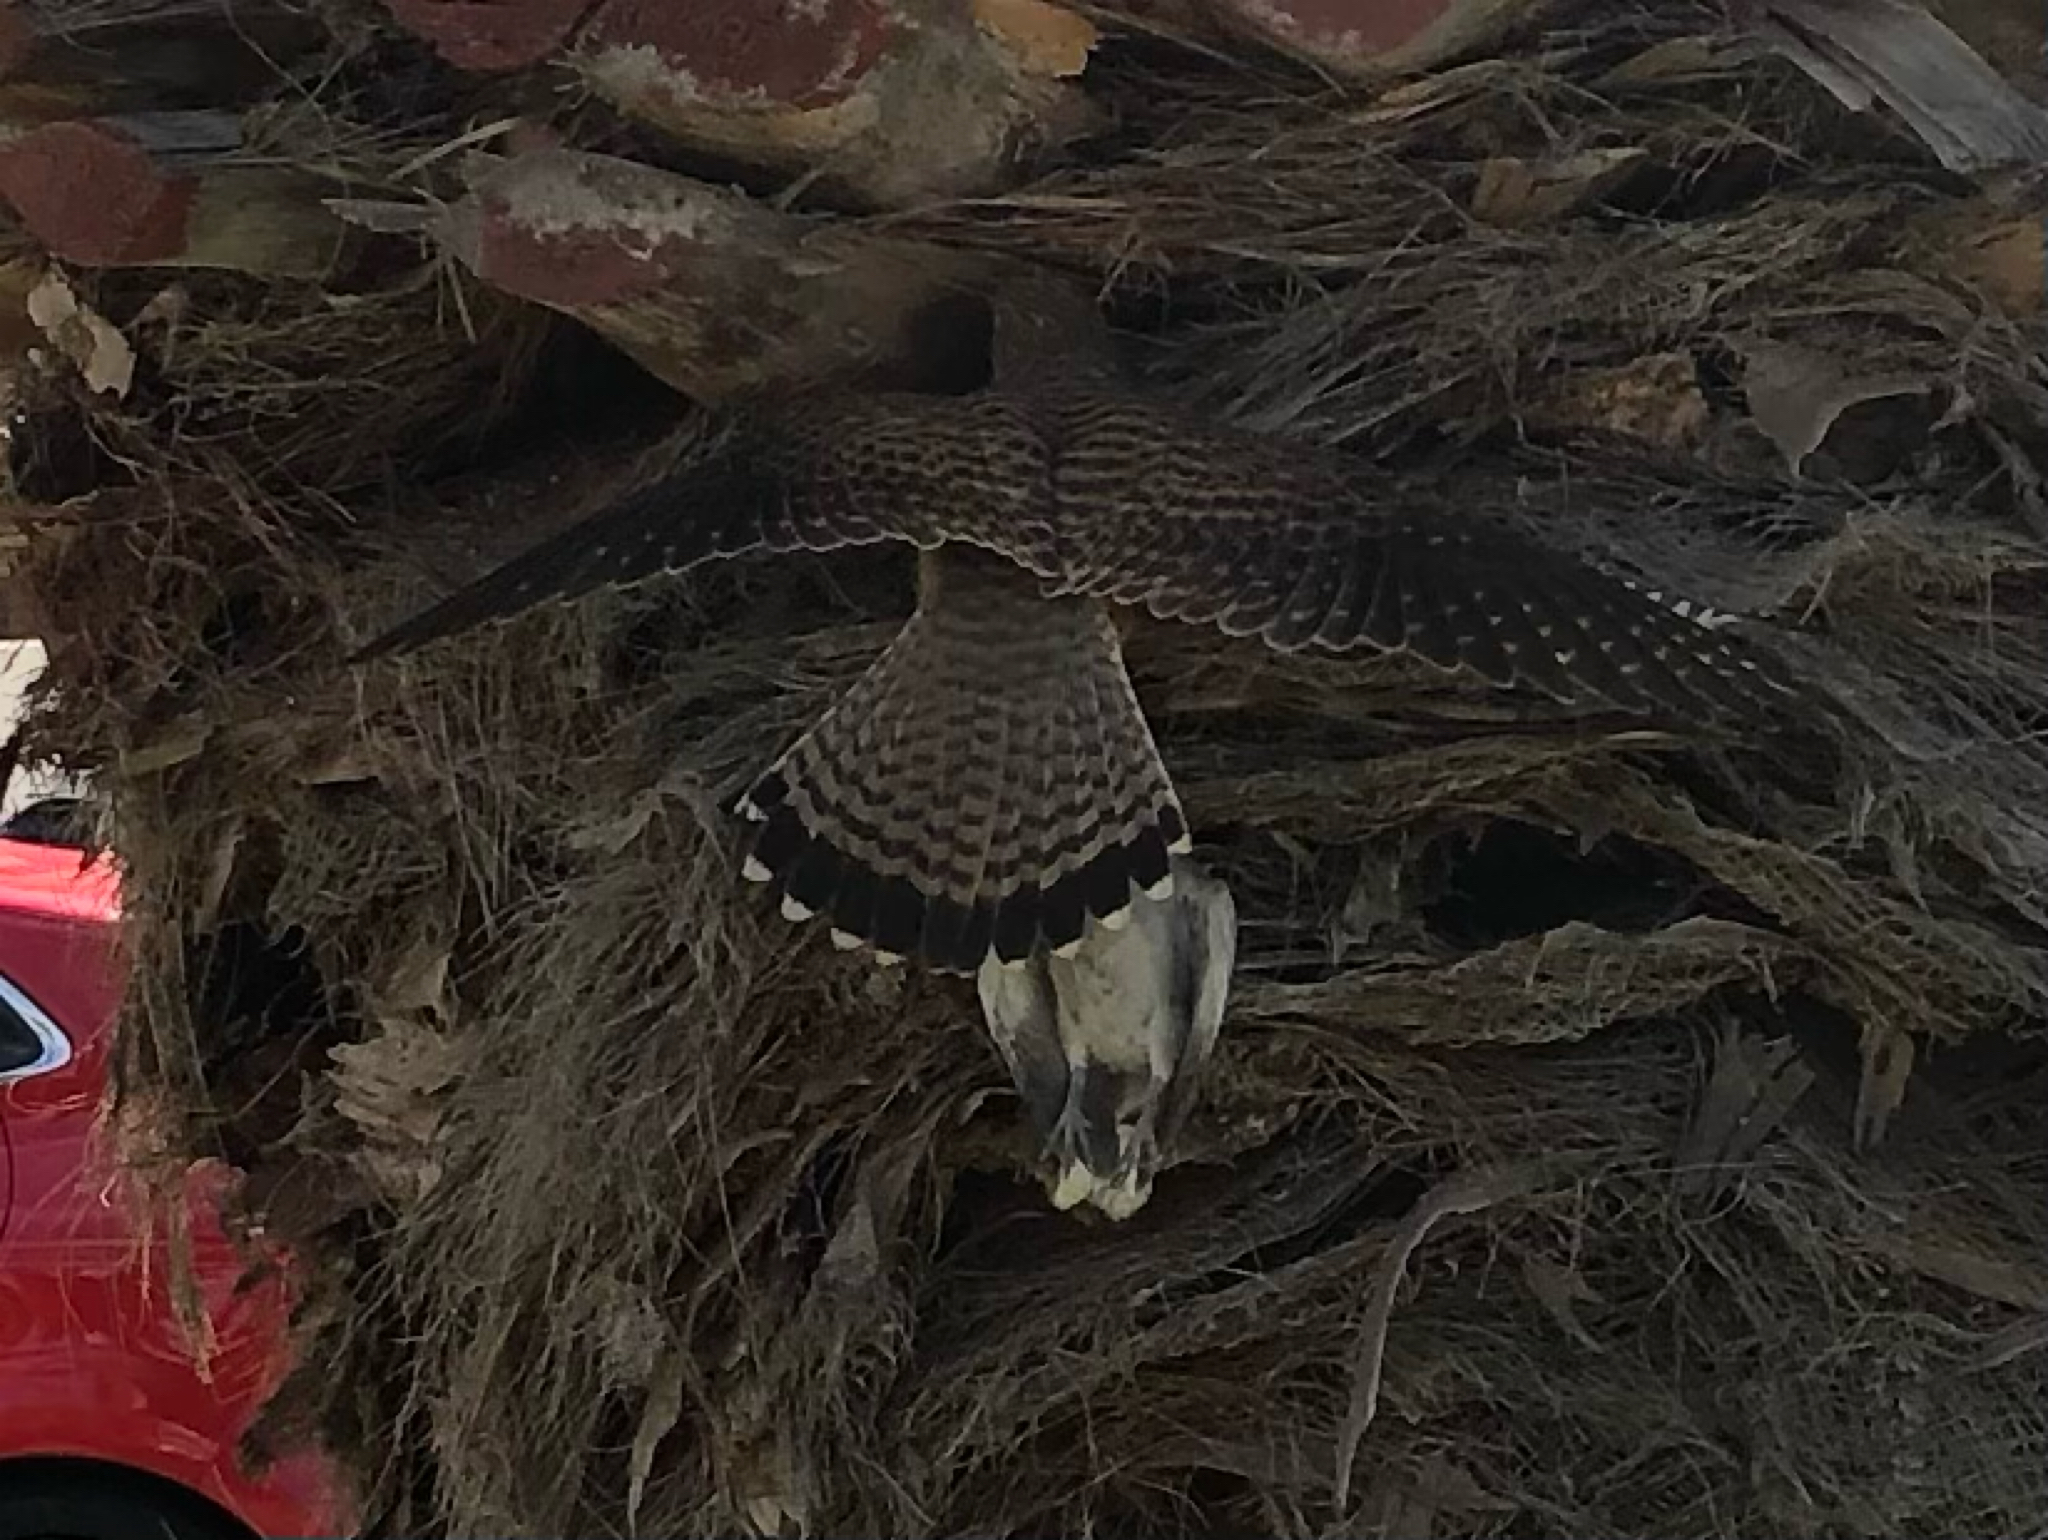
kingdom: Animalia
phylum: Chordata
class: Aves
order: Falconiformes
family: Falconidae
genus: Falco
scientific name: Falco tinnunculus
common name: Common kestrel
